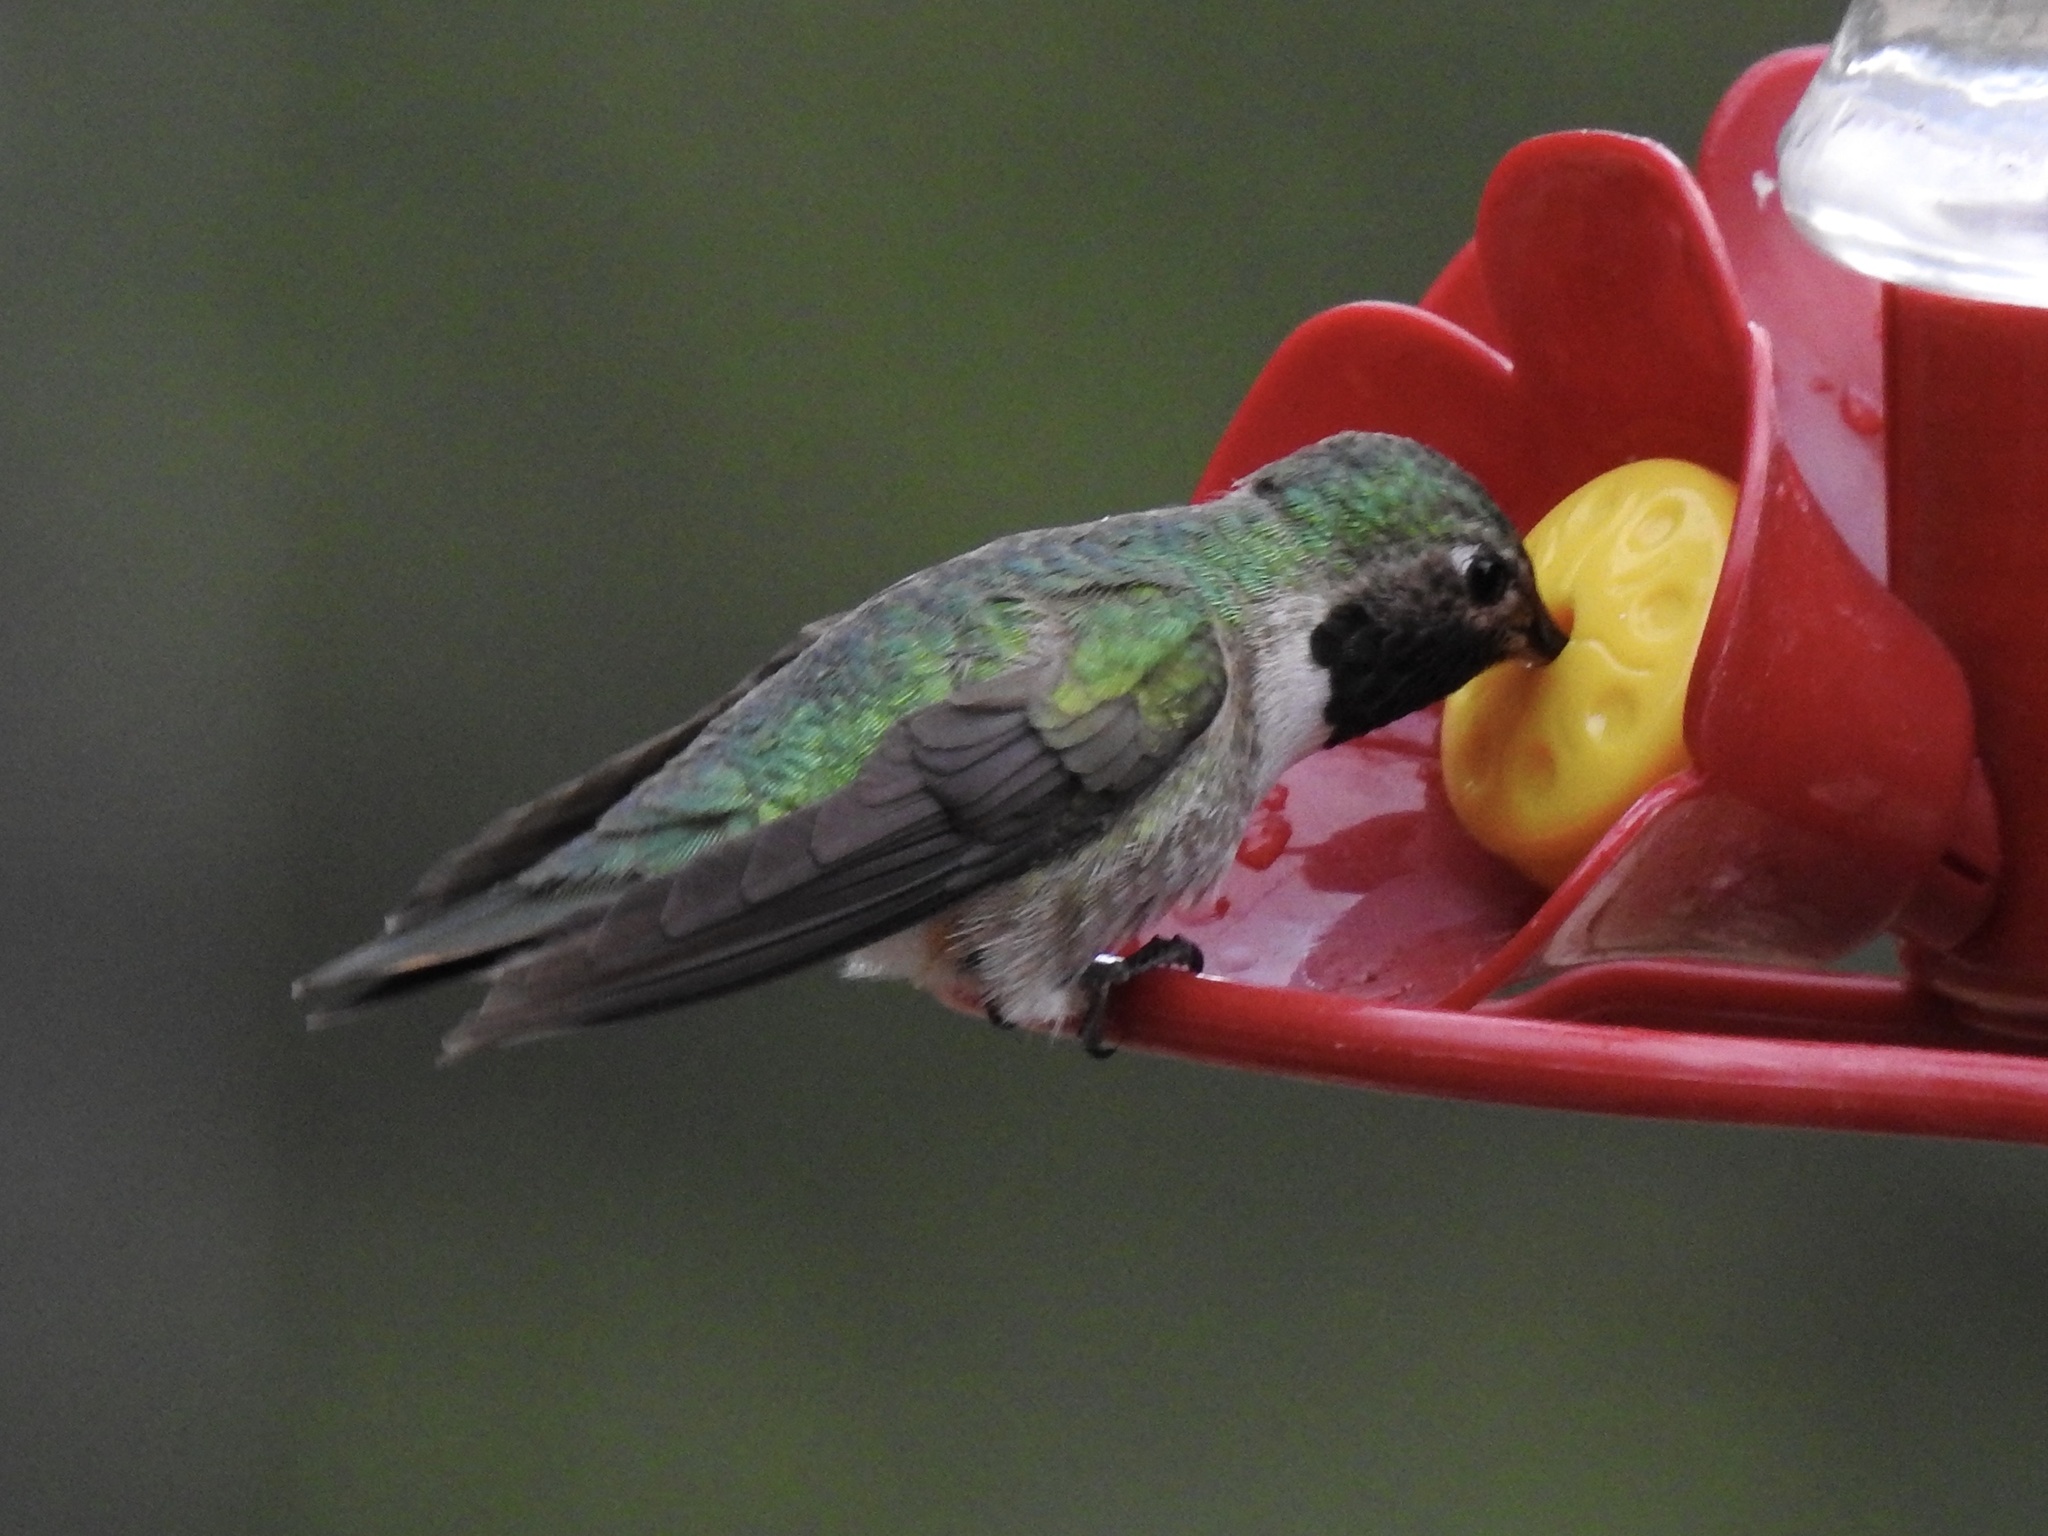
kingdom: Animalia
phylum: Chordata
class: Aves
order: Apodiformes
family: Trochilidae
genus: Selasphorus
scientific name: Selasphorus platycercus
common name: Broad-tailed hummingbird
